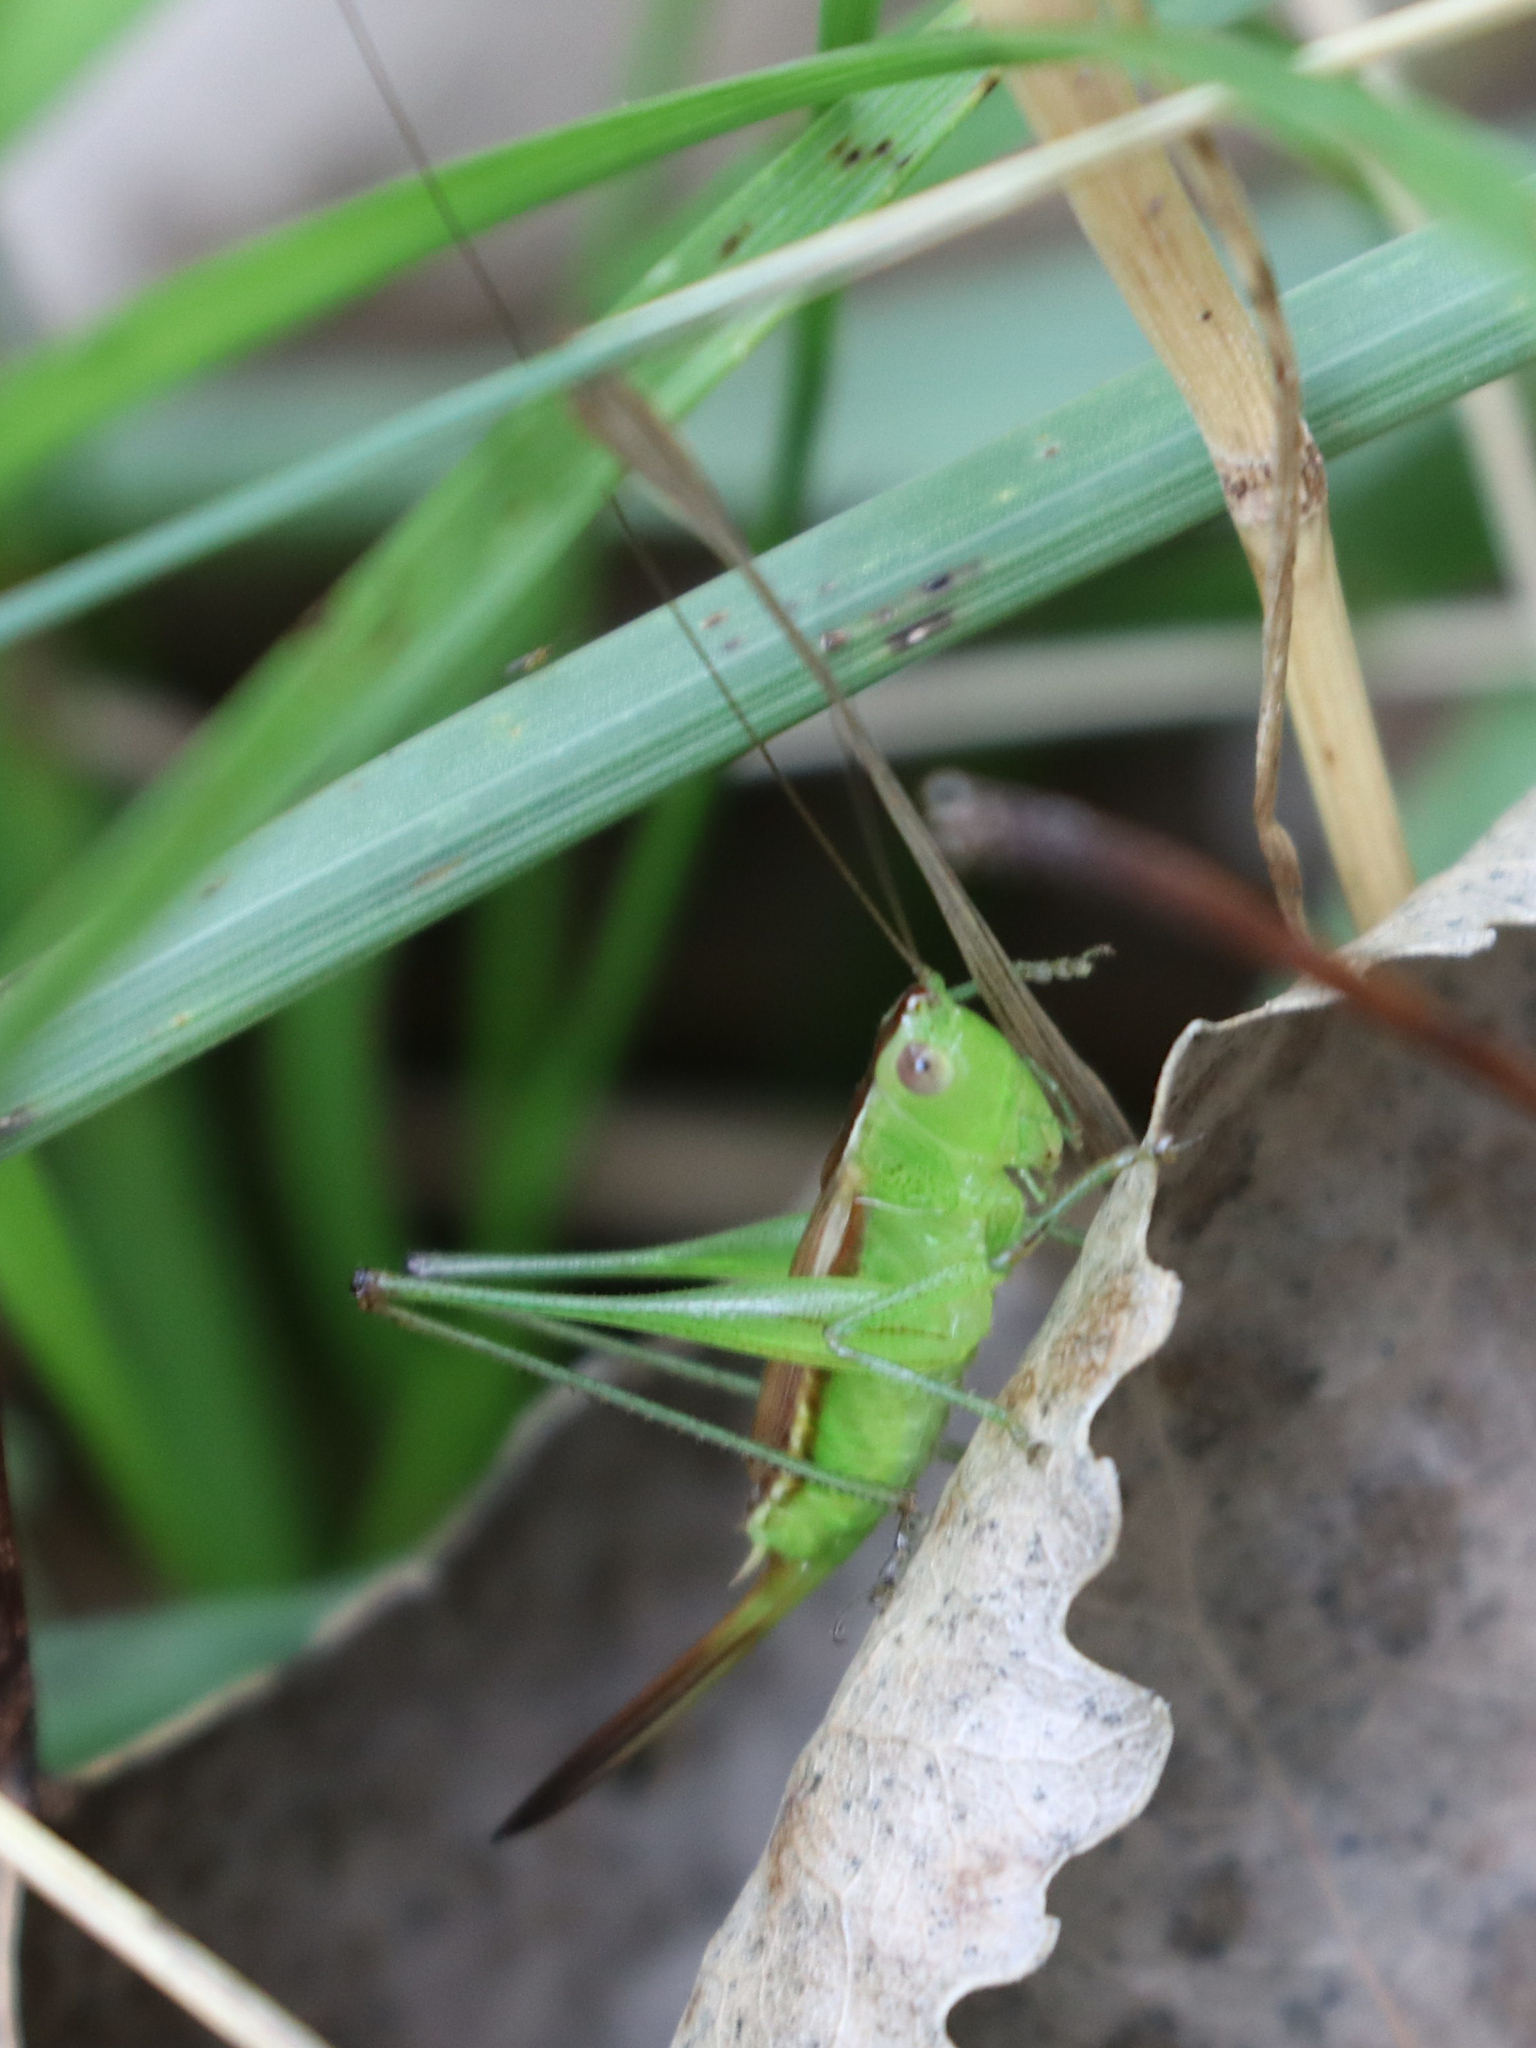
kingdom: Animalia
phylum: Arthropoda
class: Insecta
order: Orthoptera
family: Tettigoniidae
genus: Conocephalus
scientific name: Conocephalus brevipennis
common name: Short-winged meadow katydid
